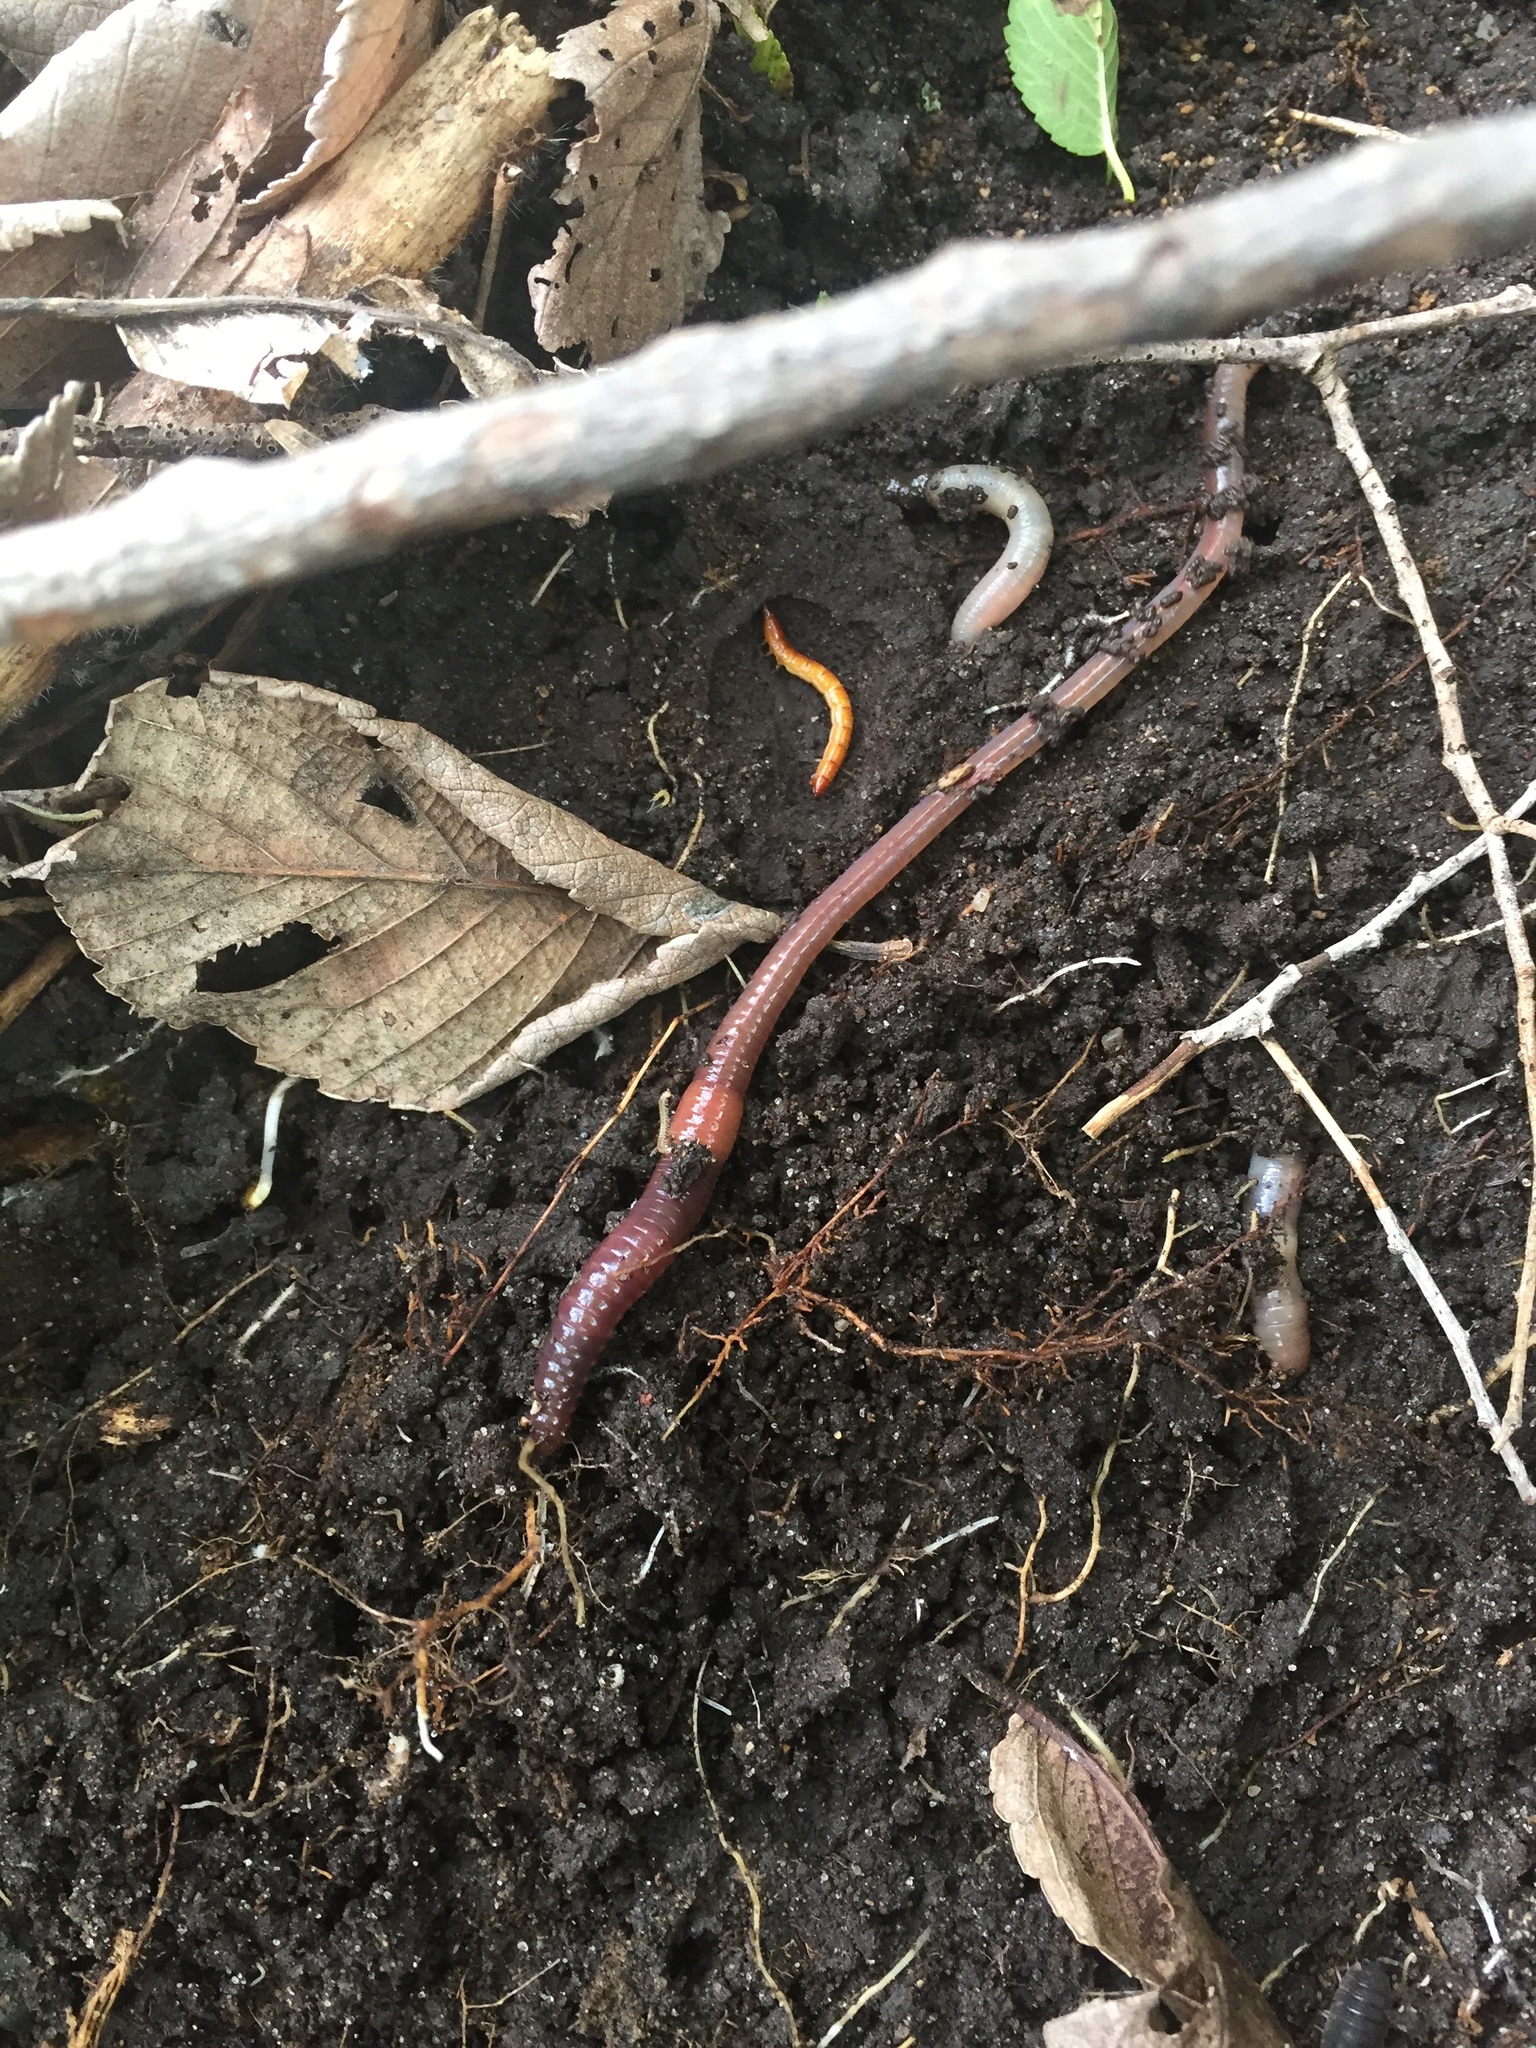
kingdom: Animalia
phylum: Annelida
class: Clitellata
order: Crassiclitellata
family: Lumbricidae
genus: Lumbricus
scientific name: Lumbricus terrestris
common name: Common earthworm
